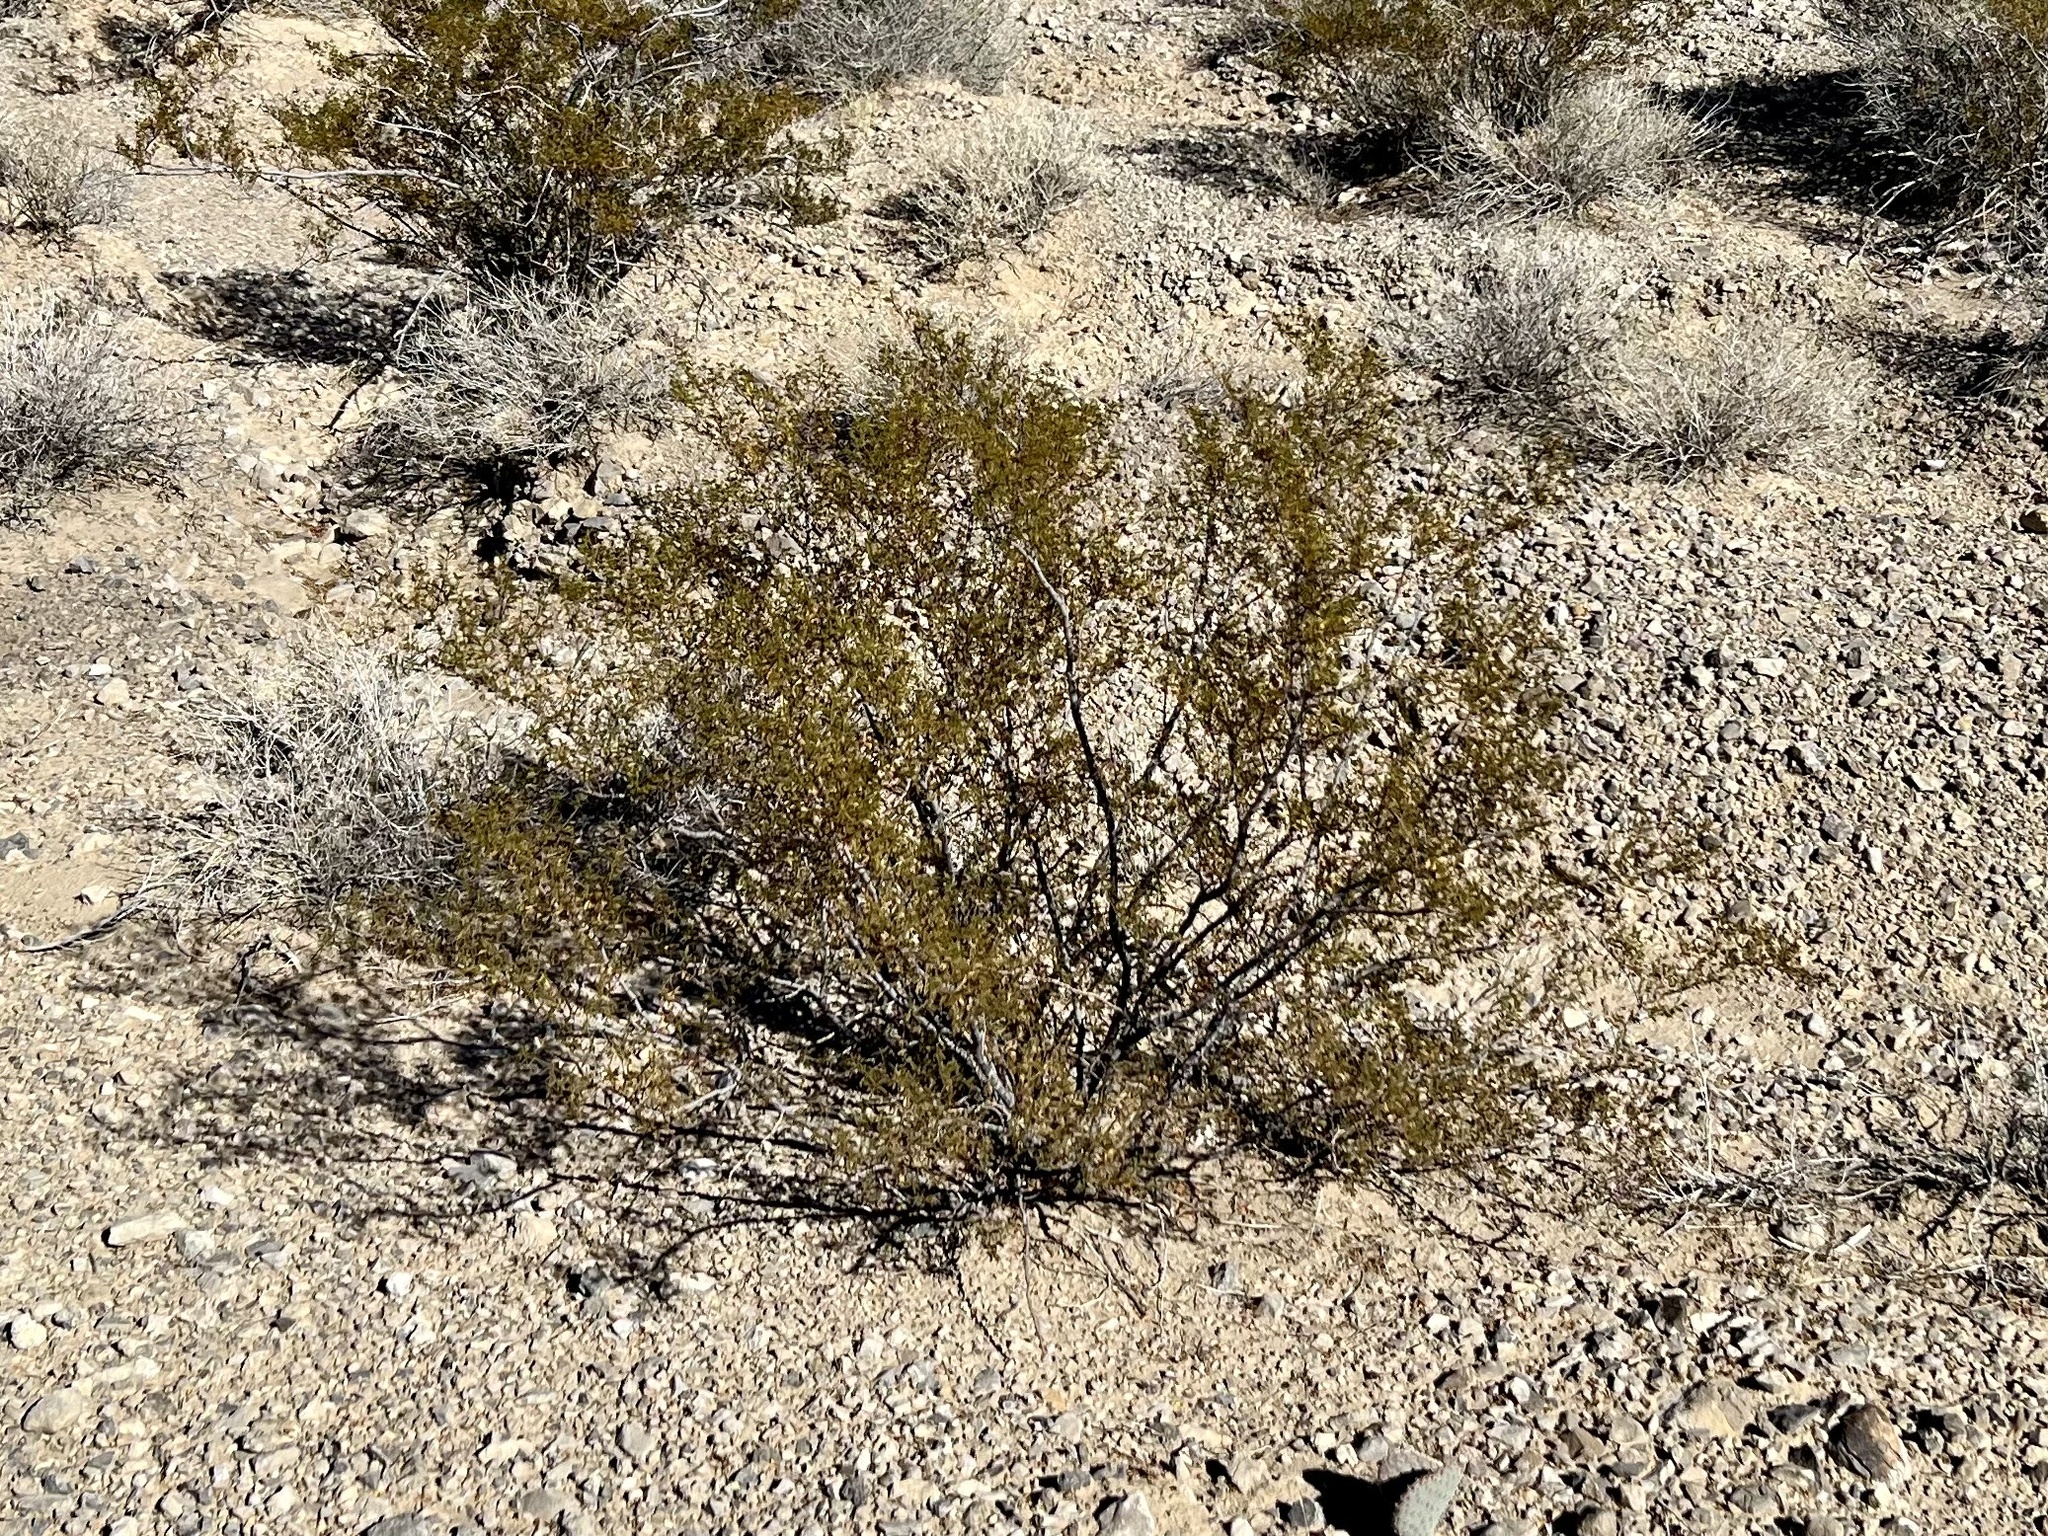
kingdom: Plantae
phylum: Tracheophyta
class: Magnoliopsida
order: Zygophyllales
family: Zygophyllaceae
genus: Larrea
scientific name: Larrea tridentata
